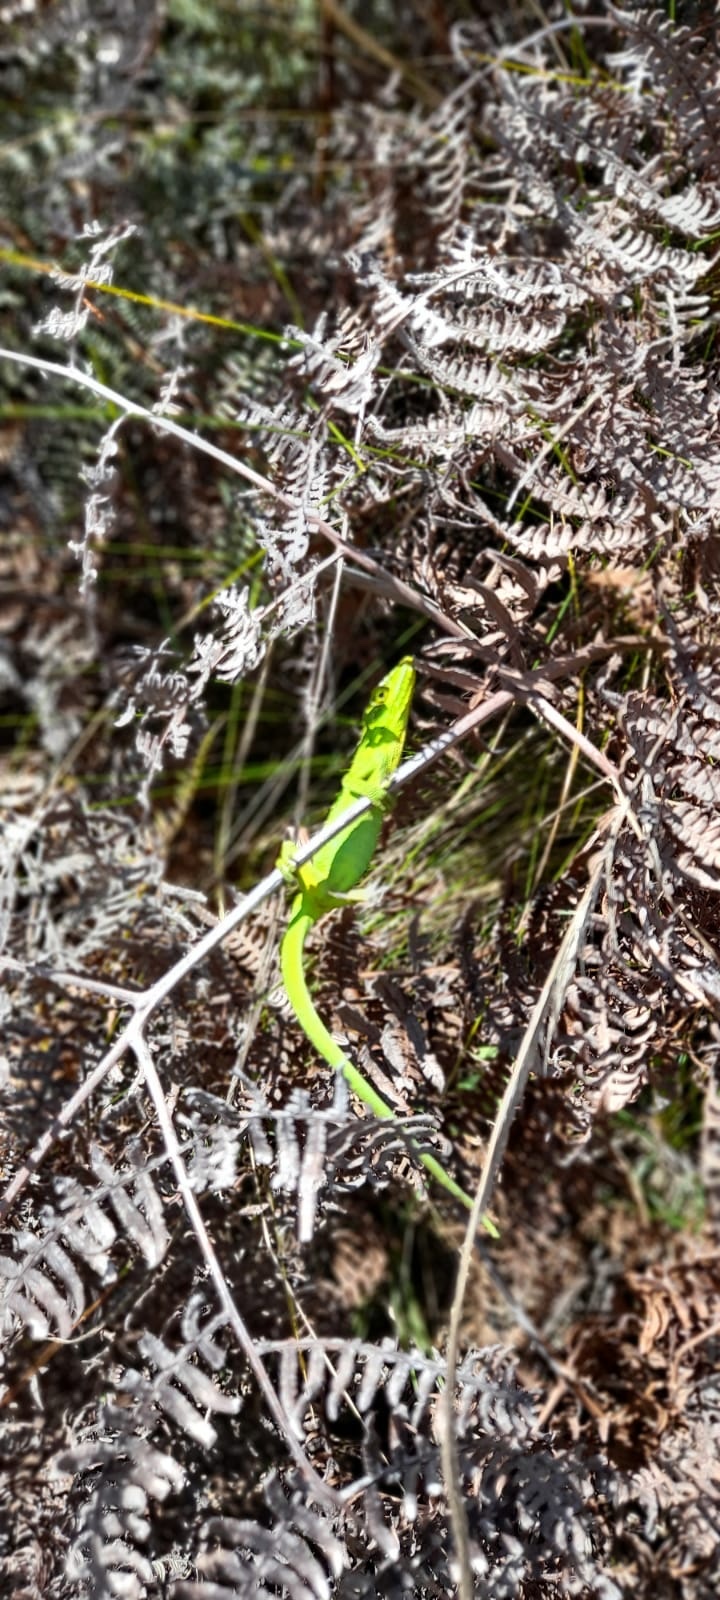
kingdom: Animalia
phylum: Chordata
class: Squamata
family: Dactyloidae
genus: Anolis
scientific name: Anolis heterodermus
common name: Flat andes anole
